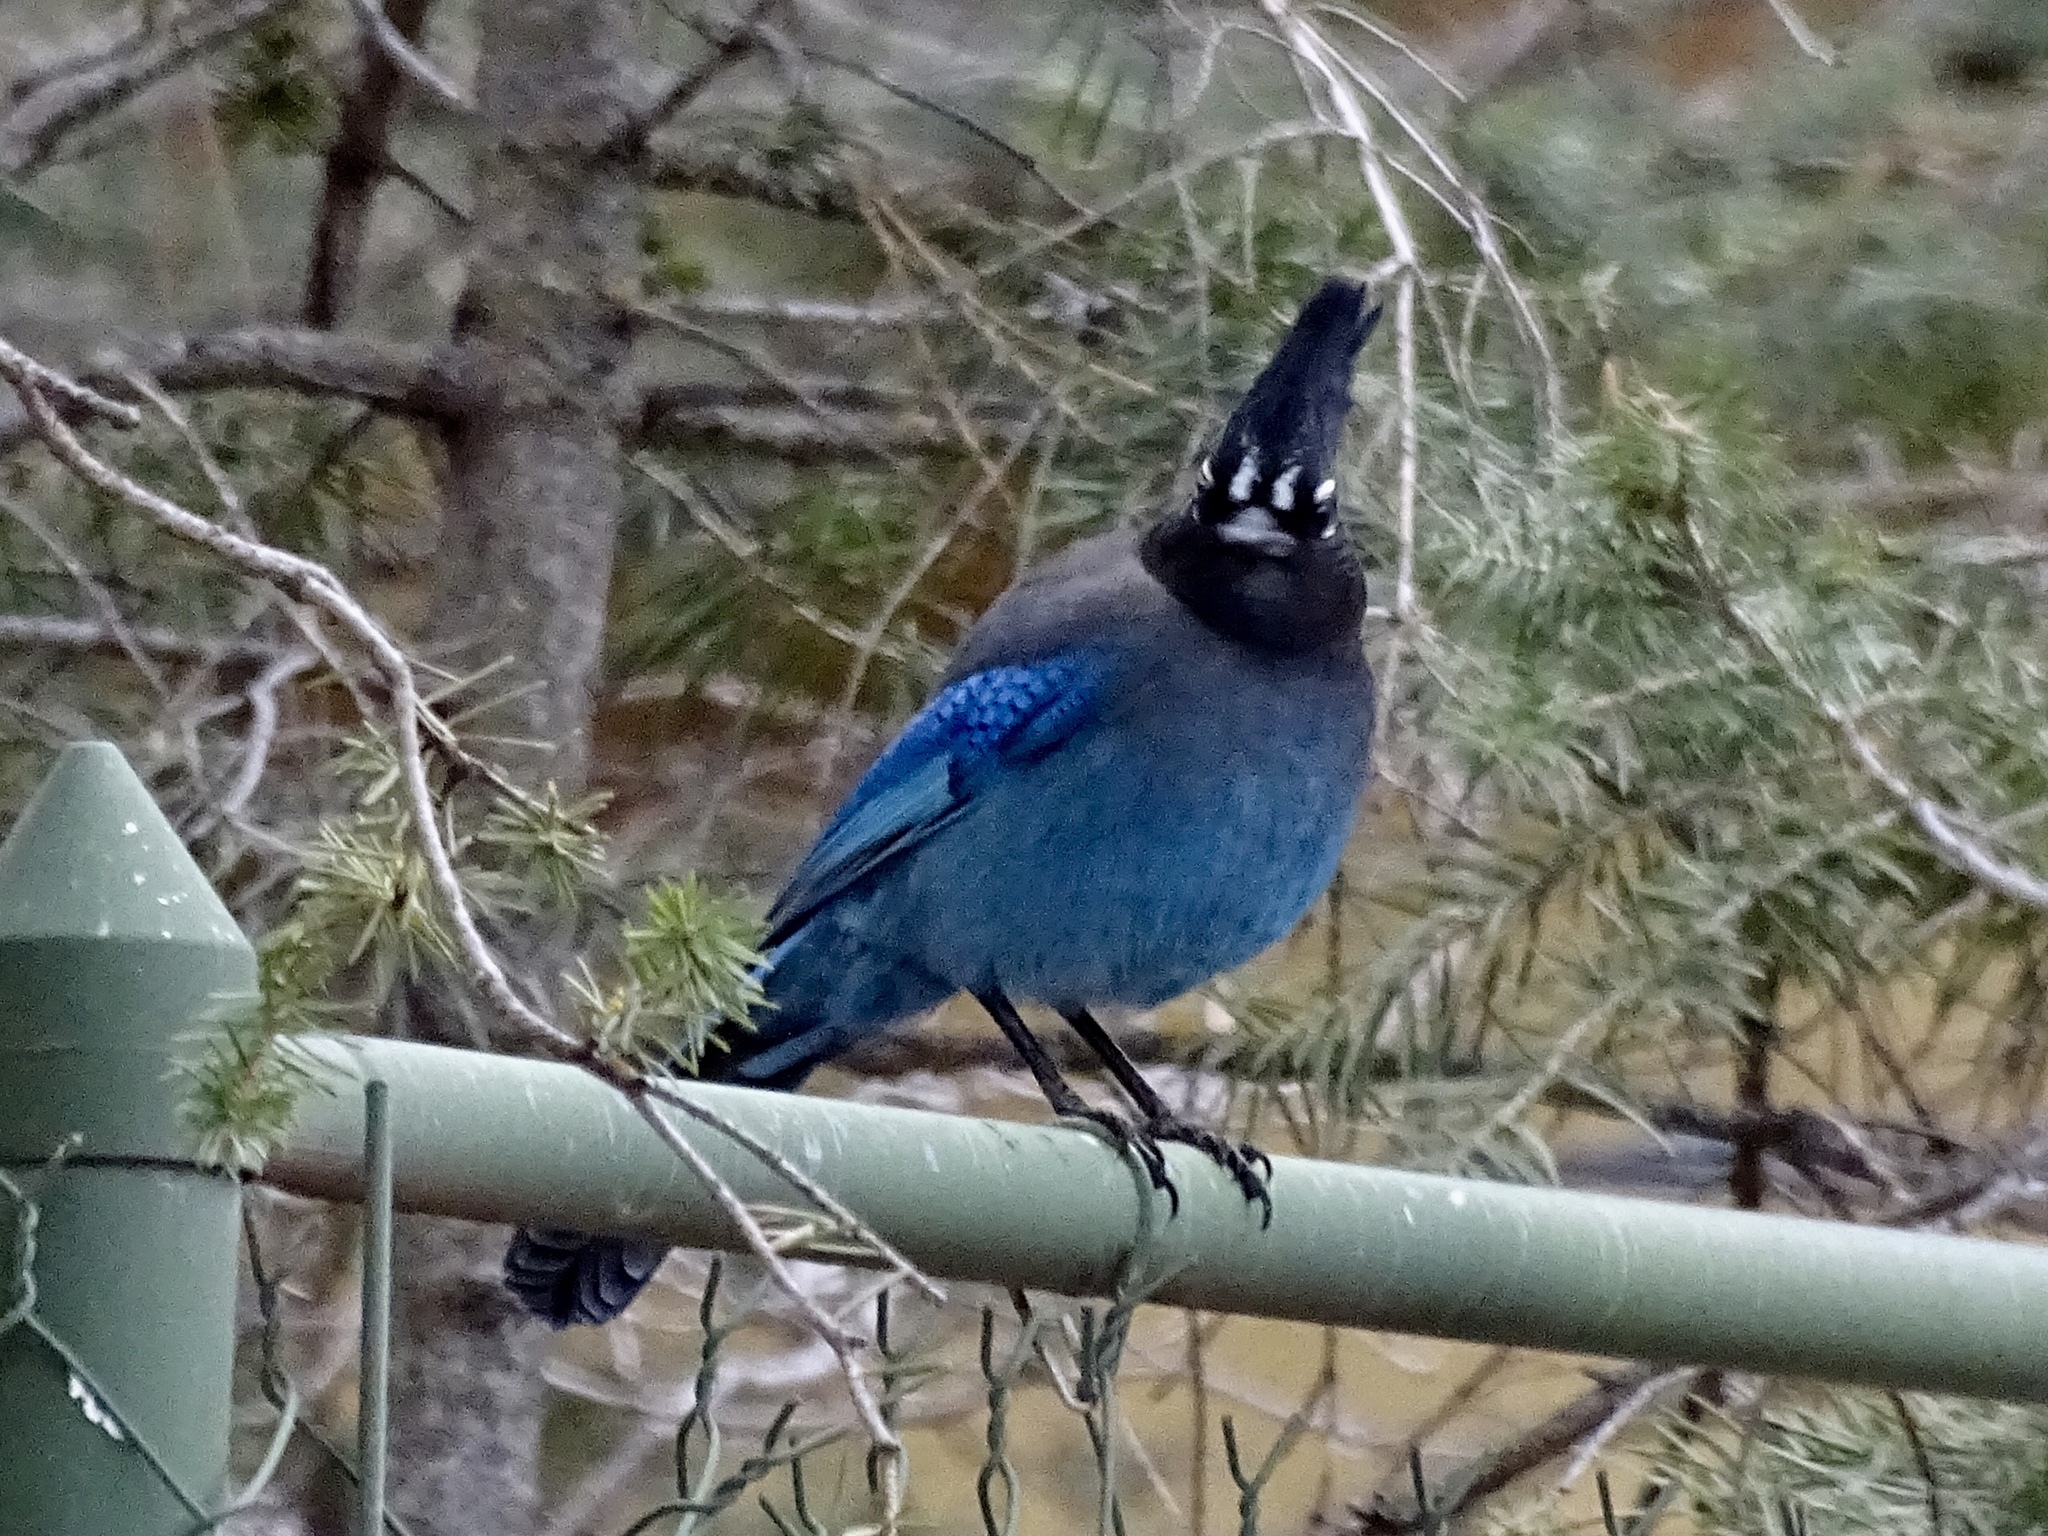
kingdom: Animalia
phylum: Chordata
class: Aves
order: Passeriformes
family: Corvidae
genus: Cyanocitta
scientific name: Cyanocitta stelleri
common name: Steller's jay
